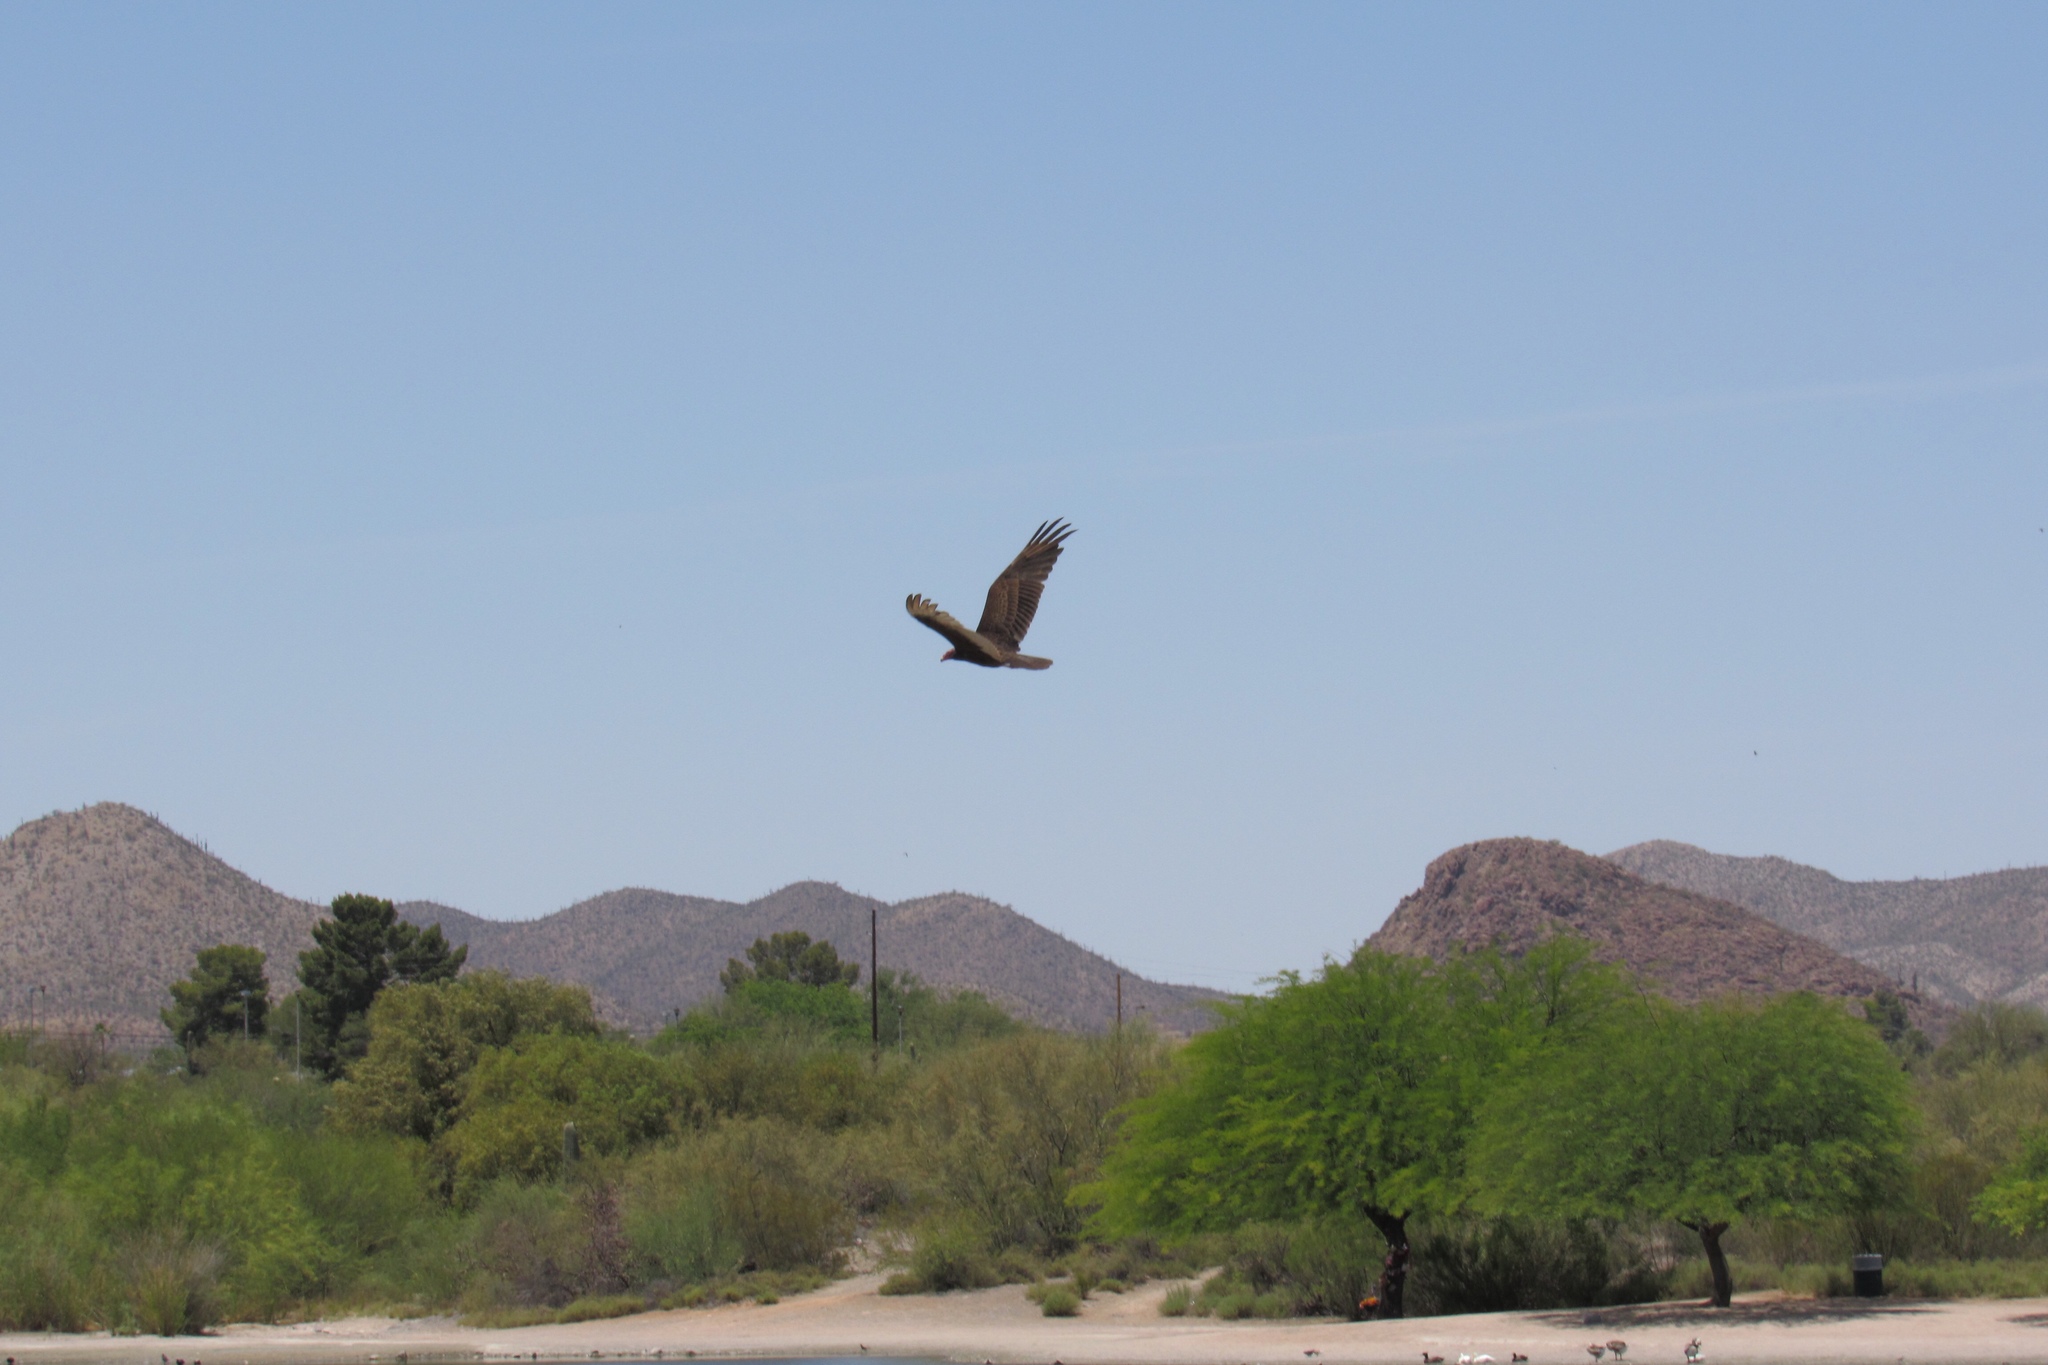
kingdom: Animalia
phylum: Chordata
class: Aves
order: Accipitriformes
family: Cathartidae
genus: Cathartes
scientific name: Cathartes aura
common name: Turkey vulture
